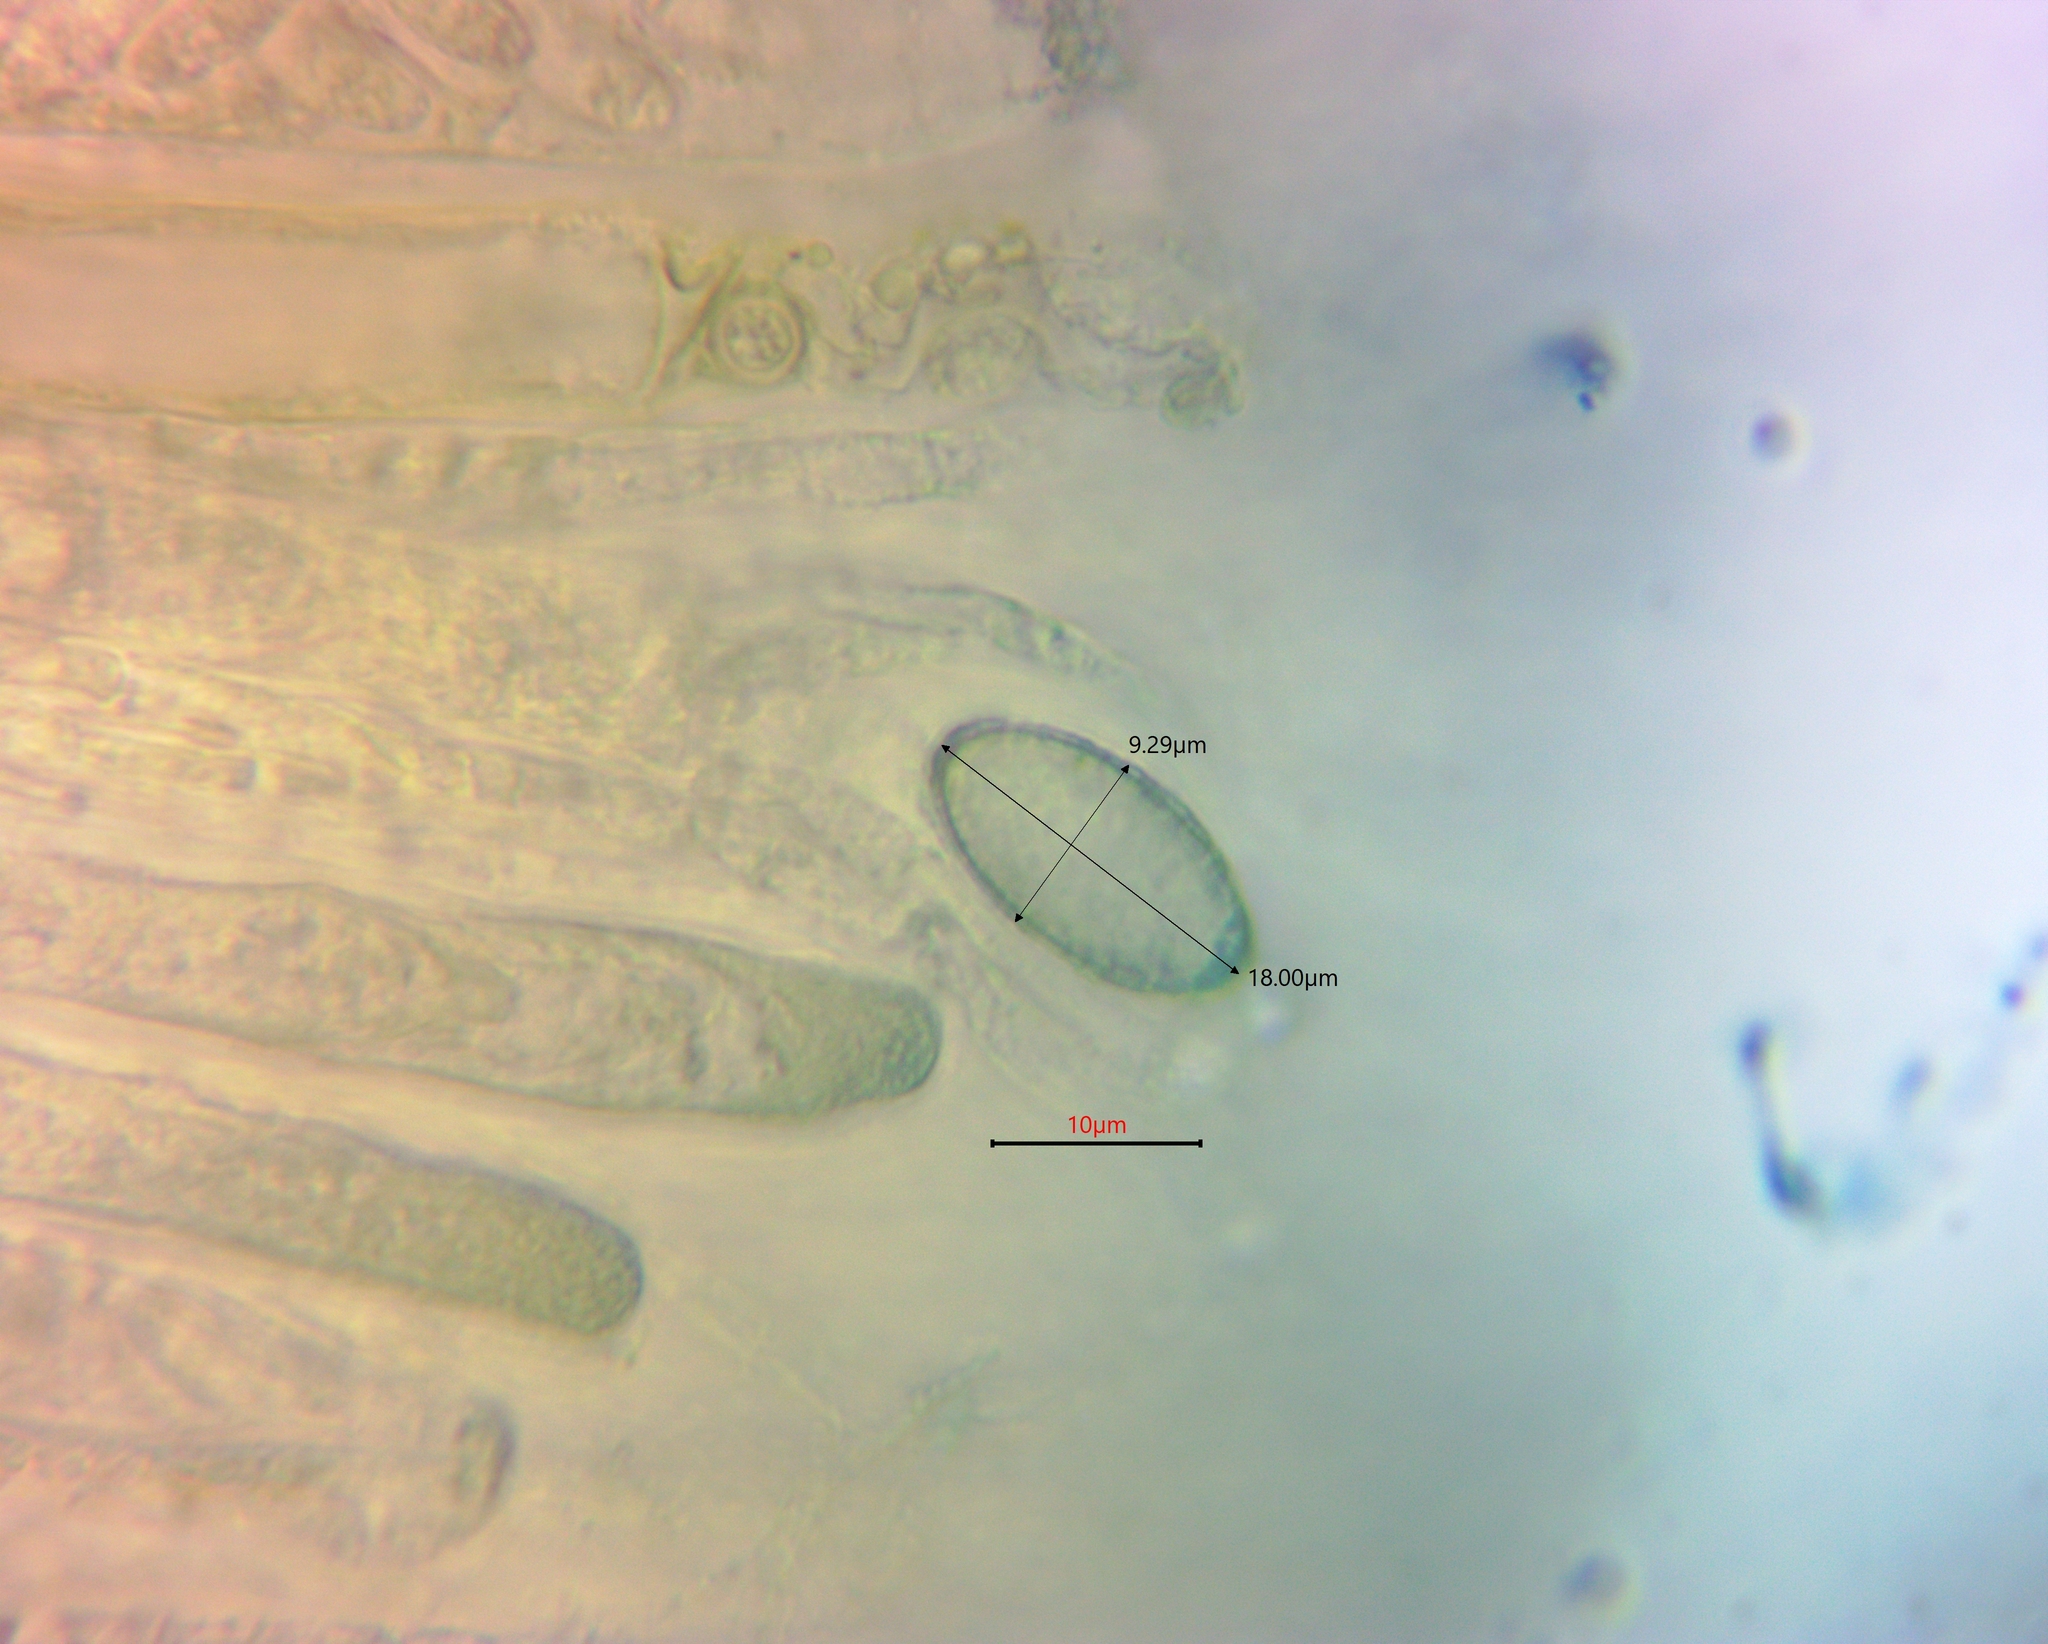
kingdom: Fungi
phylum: Ascomycota
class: Pezizomycetes
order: Pezizales
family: Pezizaceae
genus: Elaiopezia
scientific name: Elaiopezia waltersii
